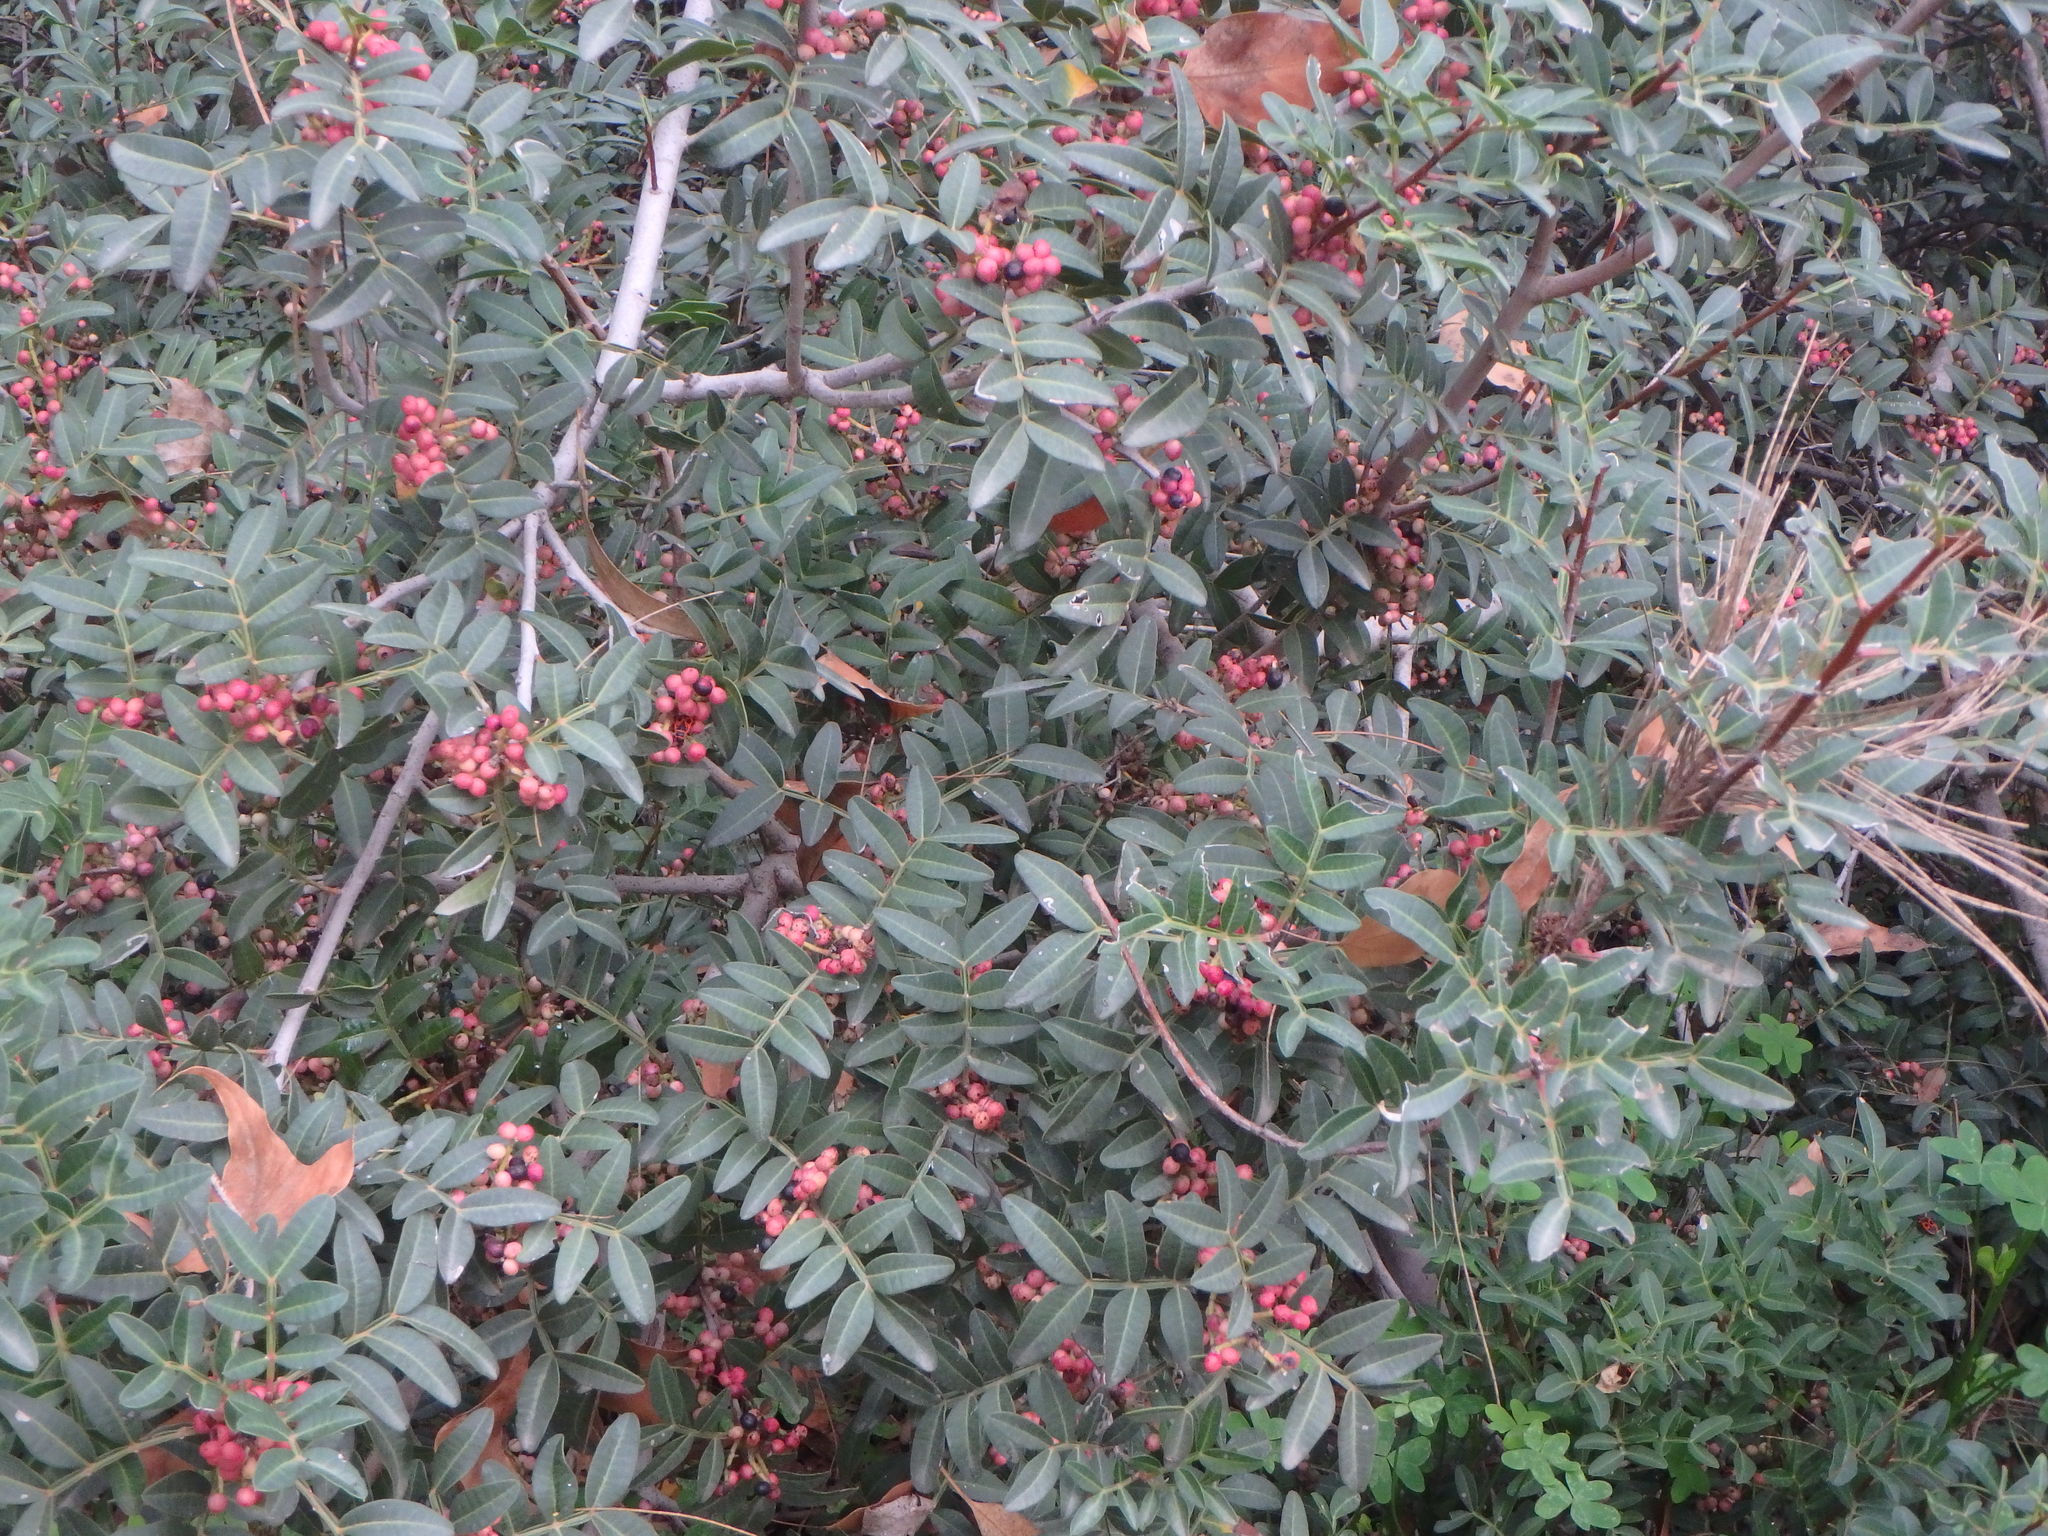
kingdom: Plantae
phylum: Tracheophyta
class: Magnoliopsida
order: Sapindales
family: Anacardiaceae
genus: Pistacia
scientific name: Pistacia lentiscus
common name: Lentisk
